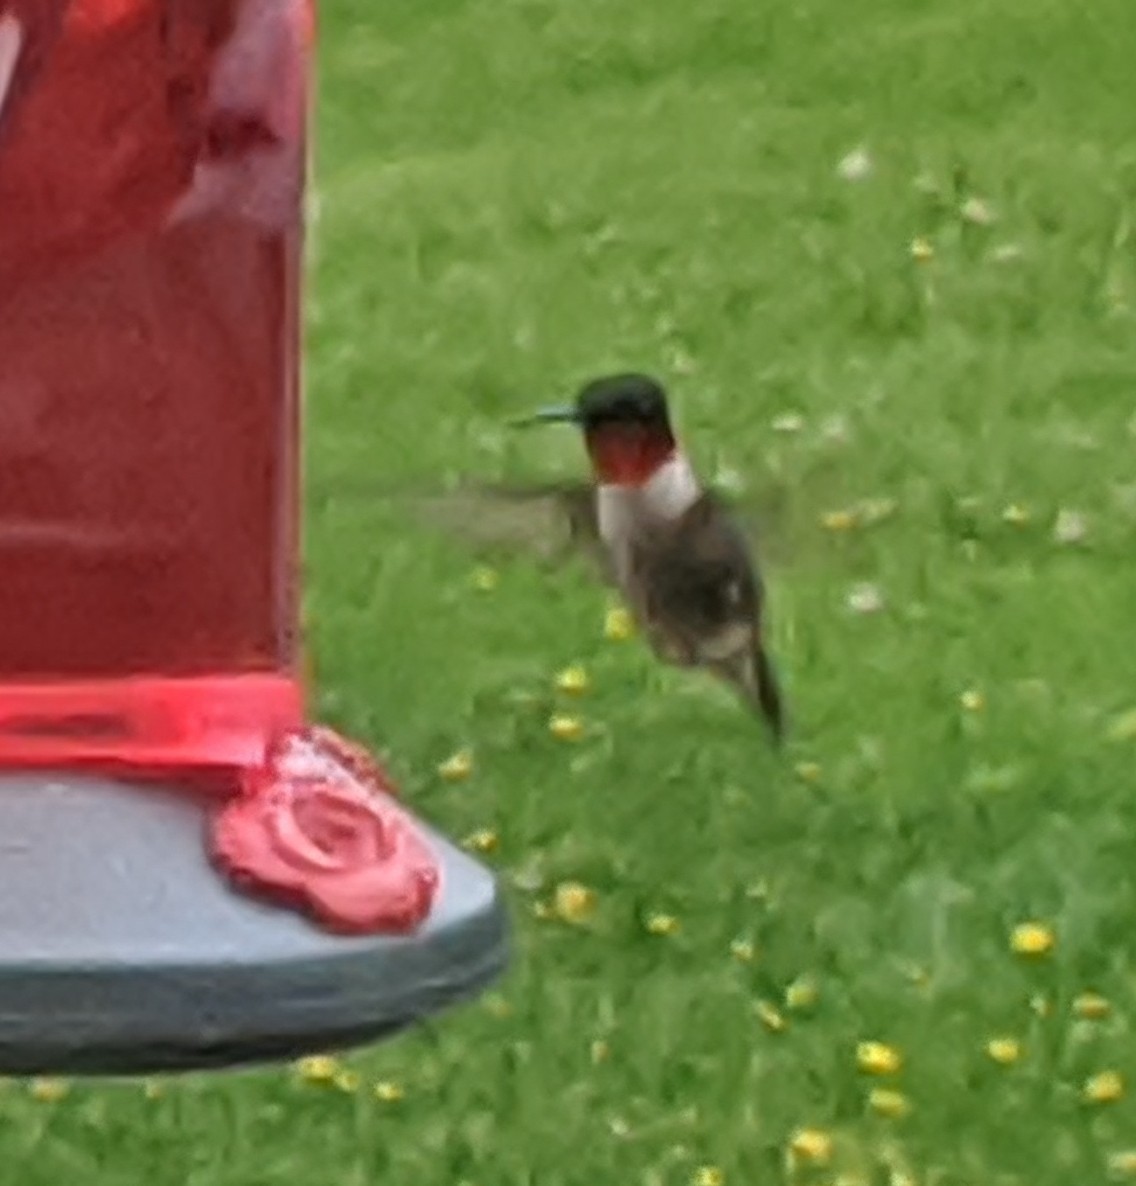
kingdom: Animalia
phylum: Chordata
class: Aves
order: Apodiformes
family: Trochilidae
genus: Archilochus
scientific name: Archilochus colubris
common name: Ruby-throated hummingbird
